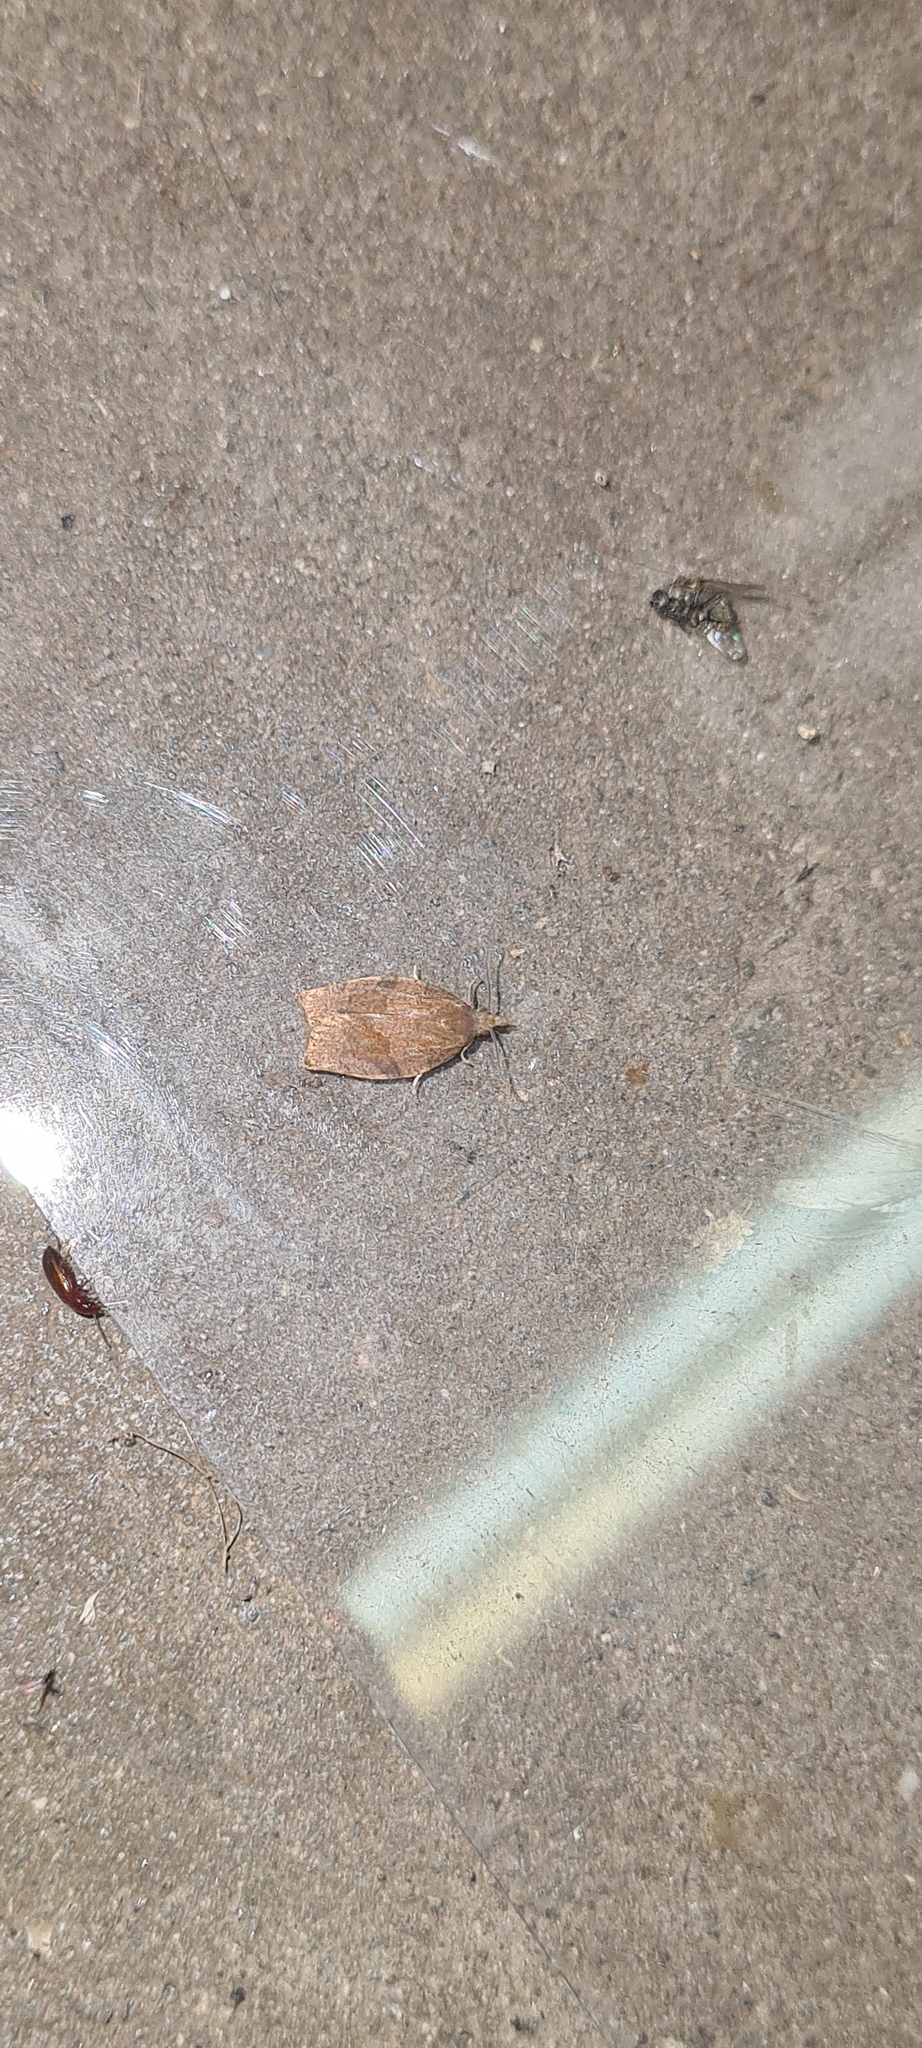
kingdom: Animalia
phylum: Arthropoda
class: Insecta
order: Lepidoptera
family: Tortricidae
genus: Pandemis
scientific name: Pandemis heparana
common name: Dark fruit-tree tortrix
